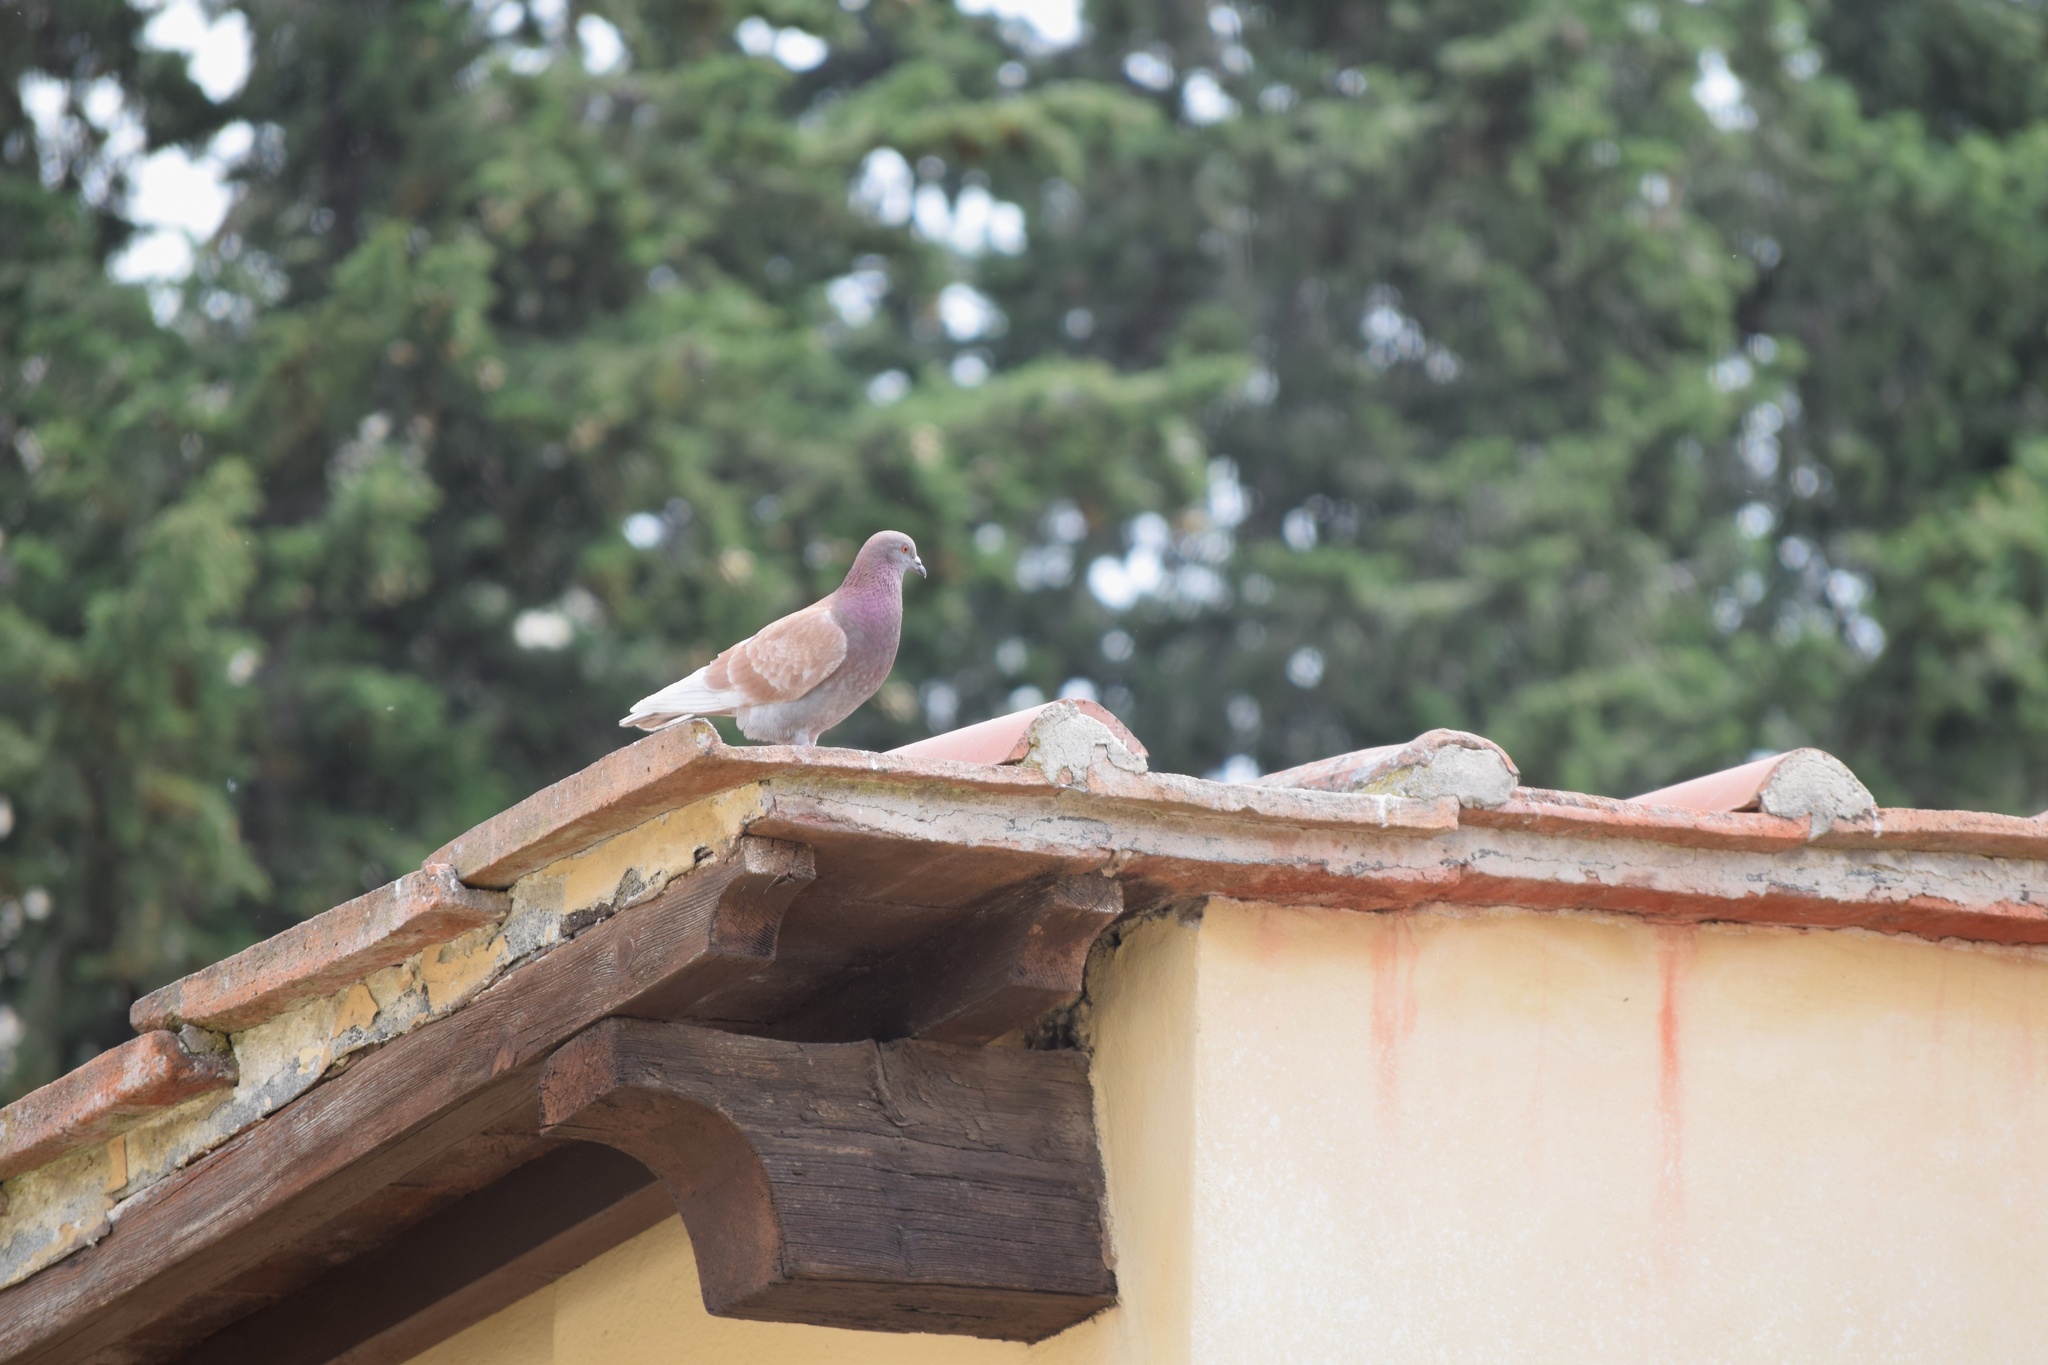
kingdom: Animalia
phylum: Chordata
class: Aves
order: Columbiformes
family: Columbidae
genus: Columba
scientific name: Columba livia
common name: Rock pigeon
